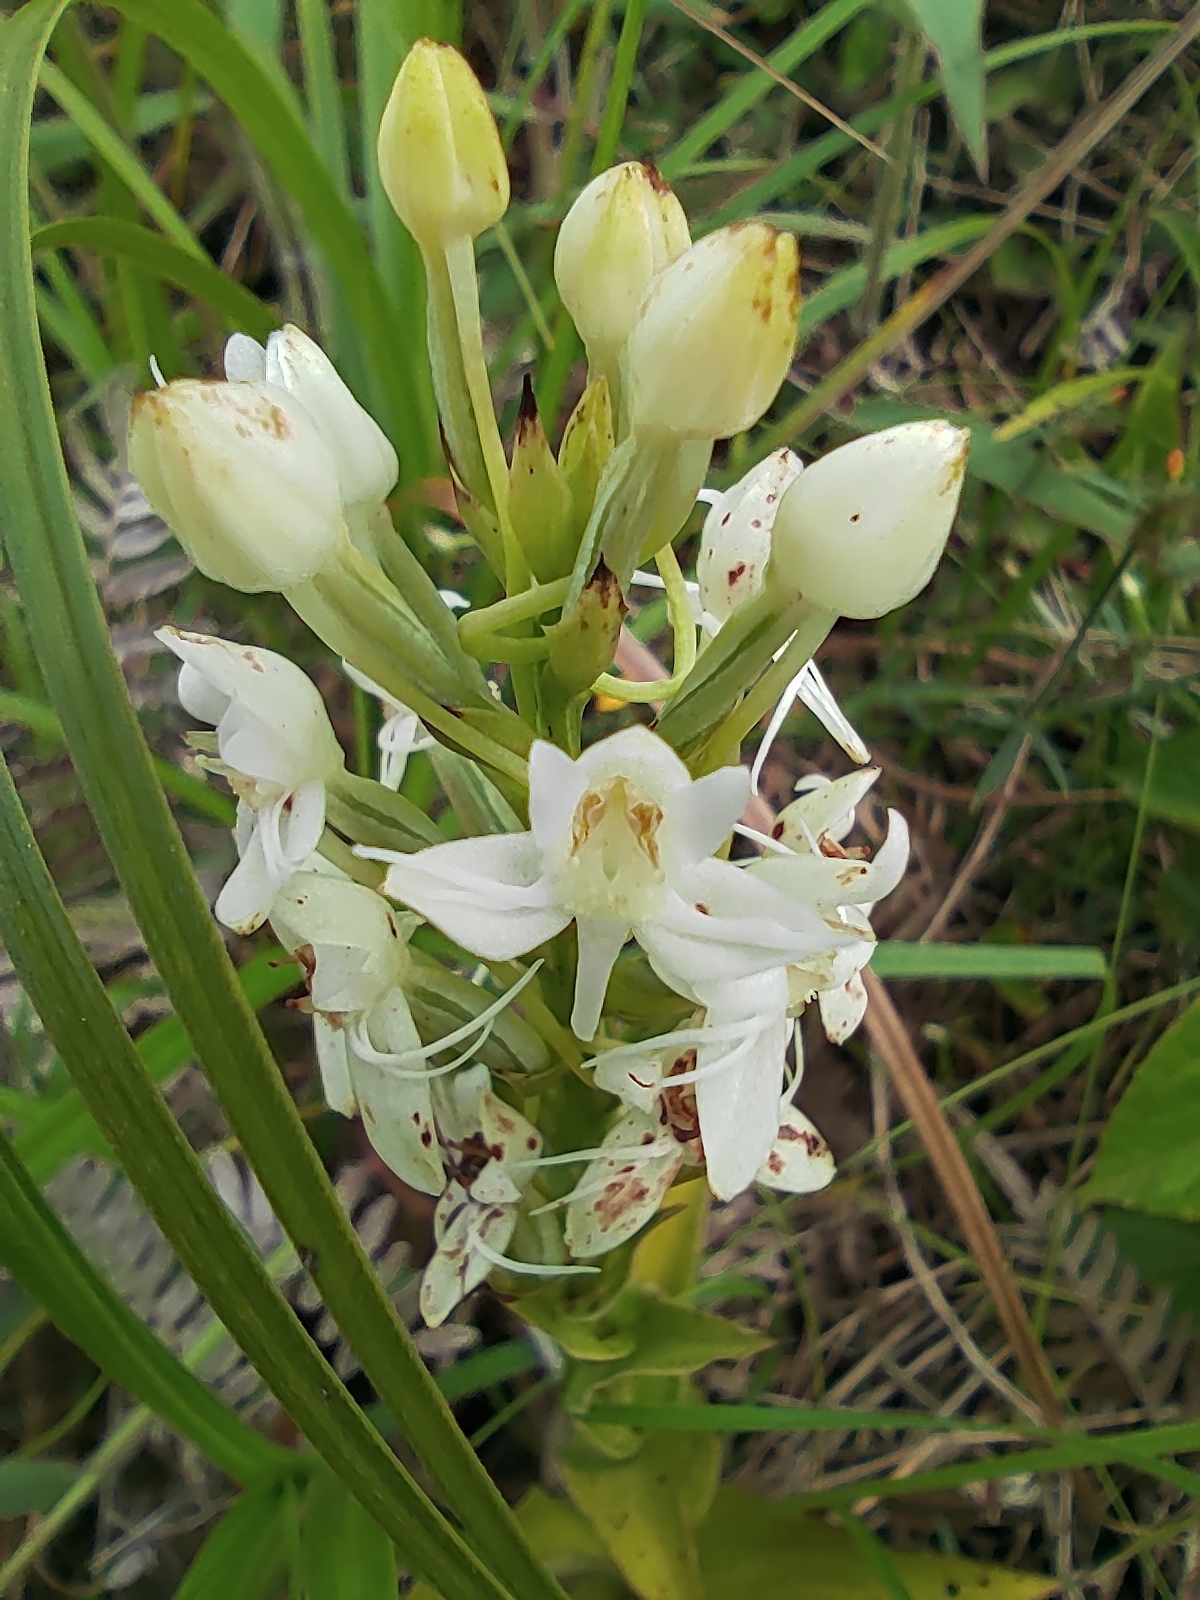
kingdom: Plantae
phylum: Tracheophyta
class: Liliopsida
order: Asparagales
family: Orchidaceae
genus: Habenaria
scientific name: Habenaria monorrhiza
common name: Tropical bog orchid
